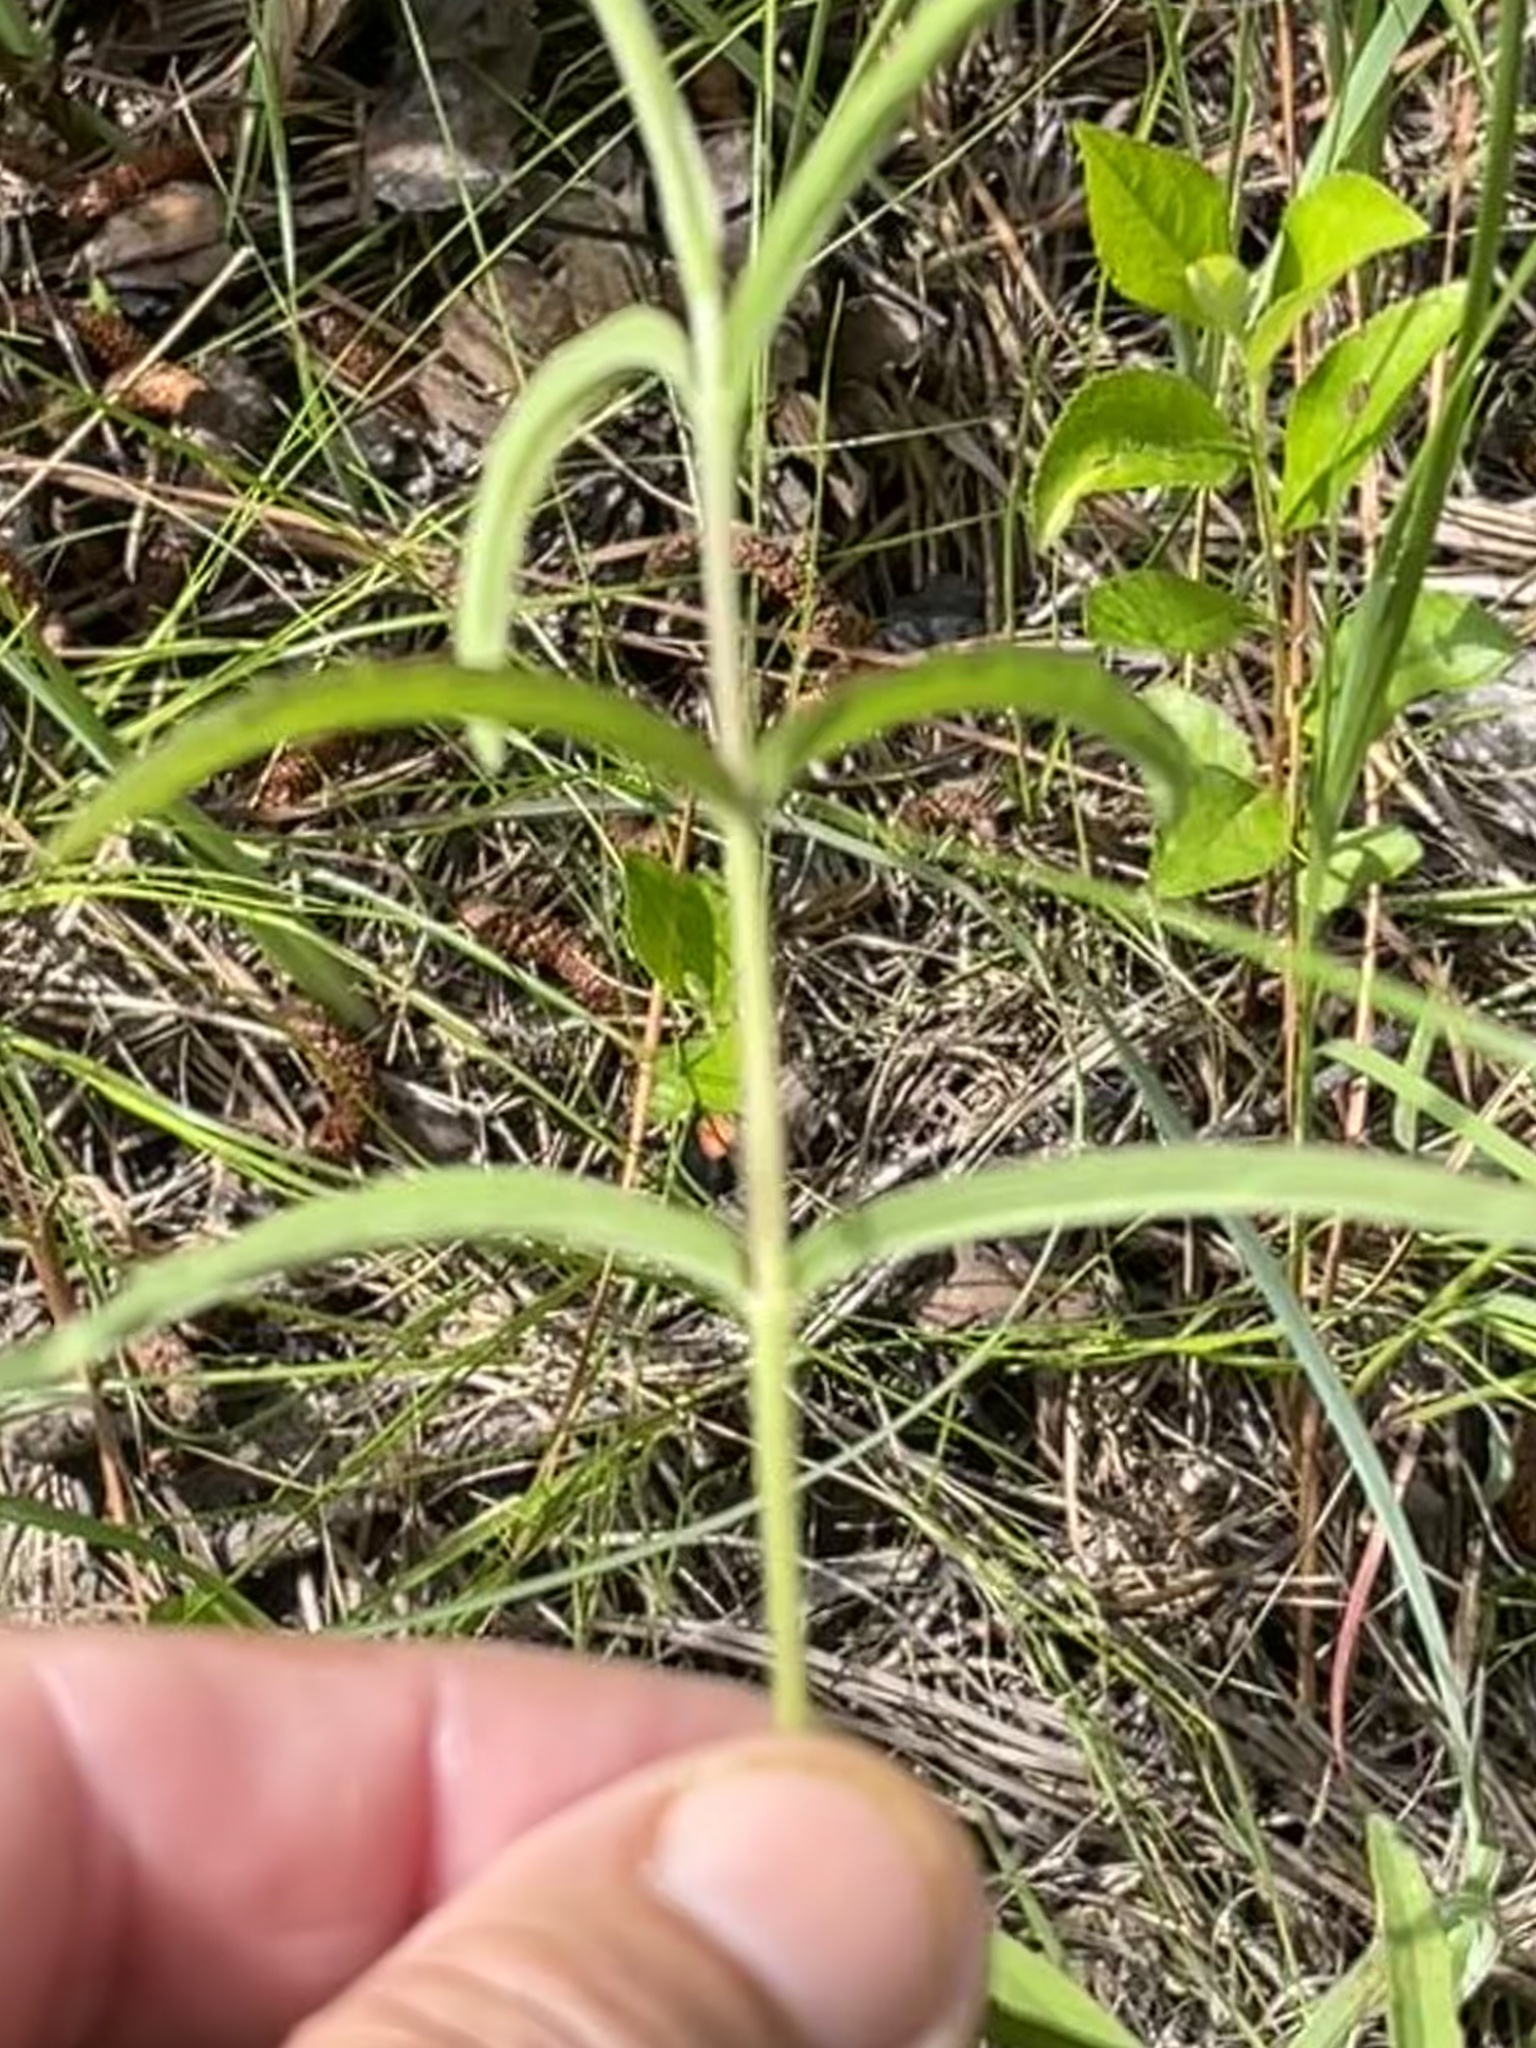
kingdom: Plantae
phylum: Tracheophyta
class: Magnoliopsida
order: Asterales
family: Asteraceae
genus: Eupatorium
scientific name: Eupatorium leucolepis
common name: Justiceweed
